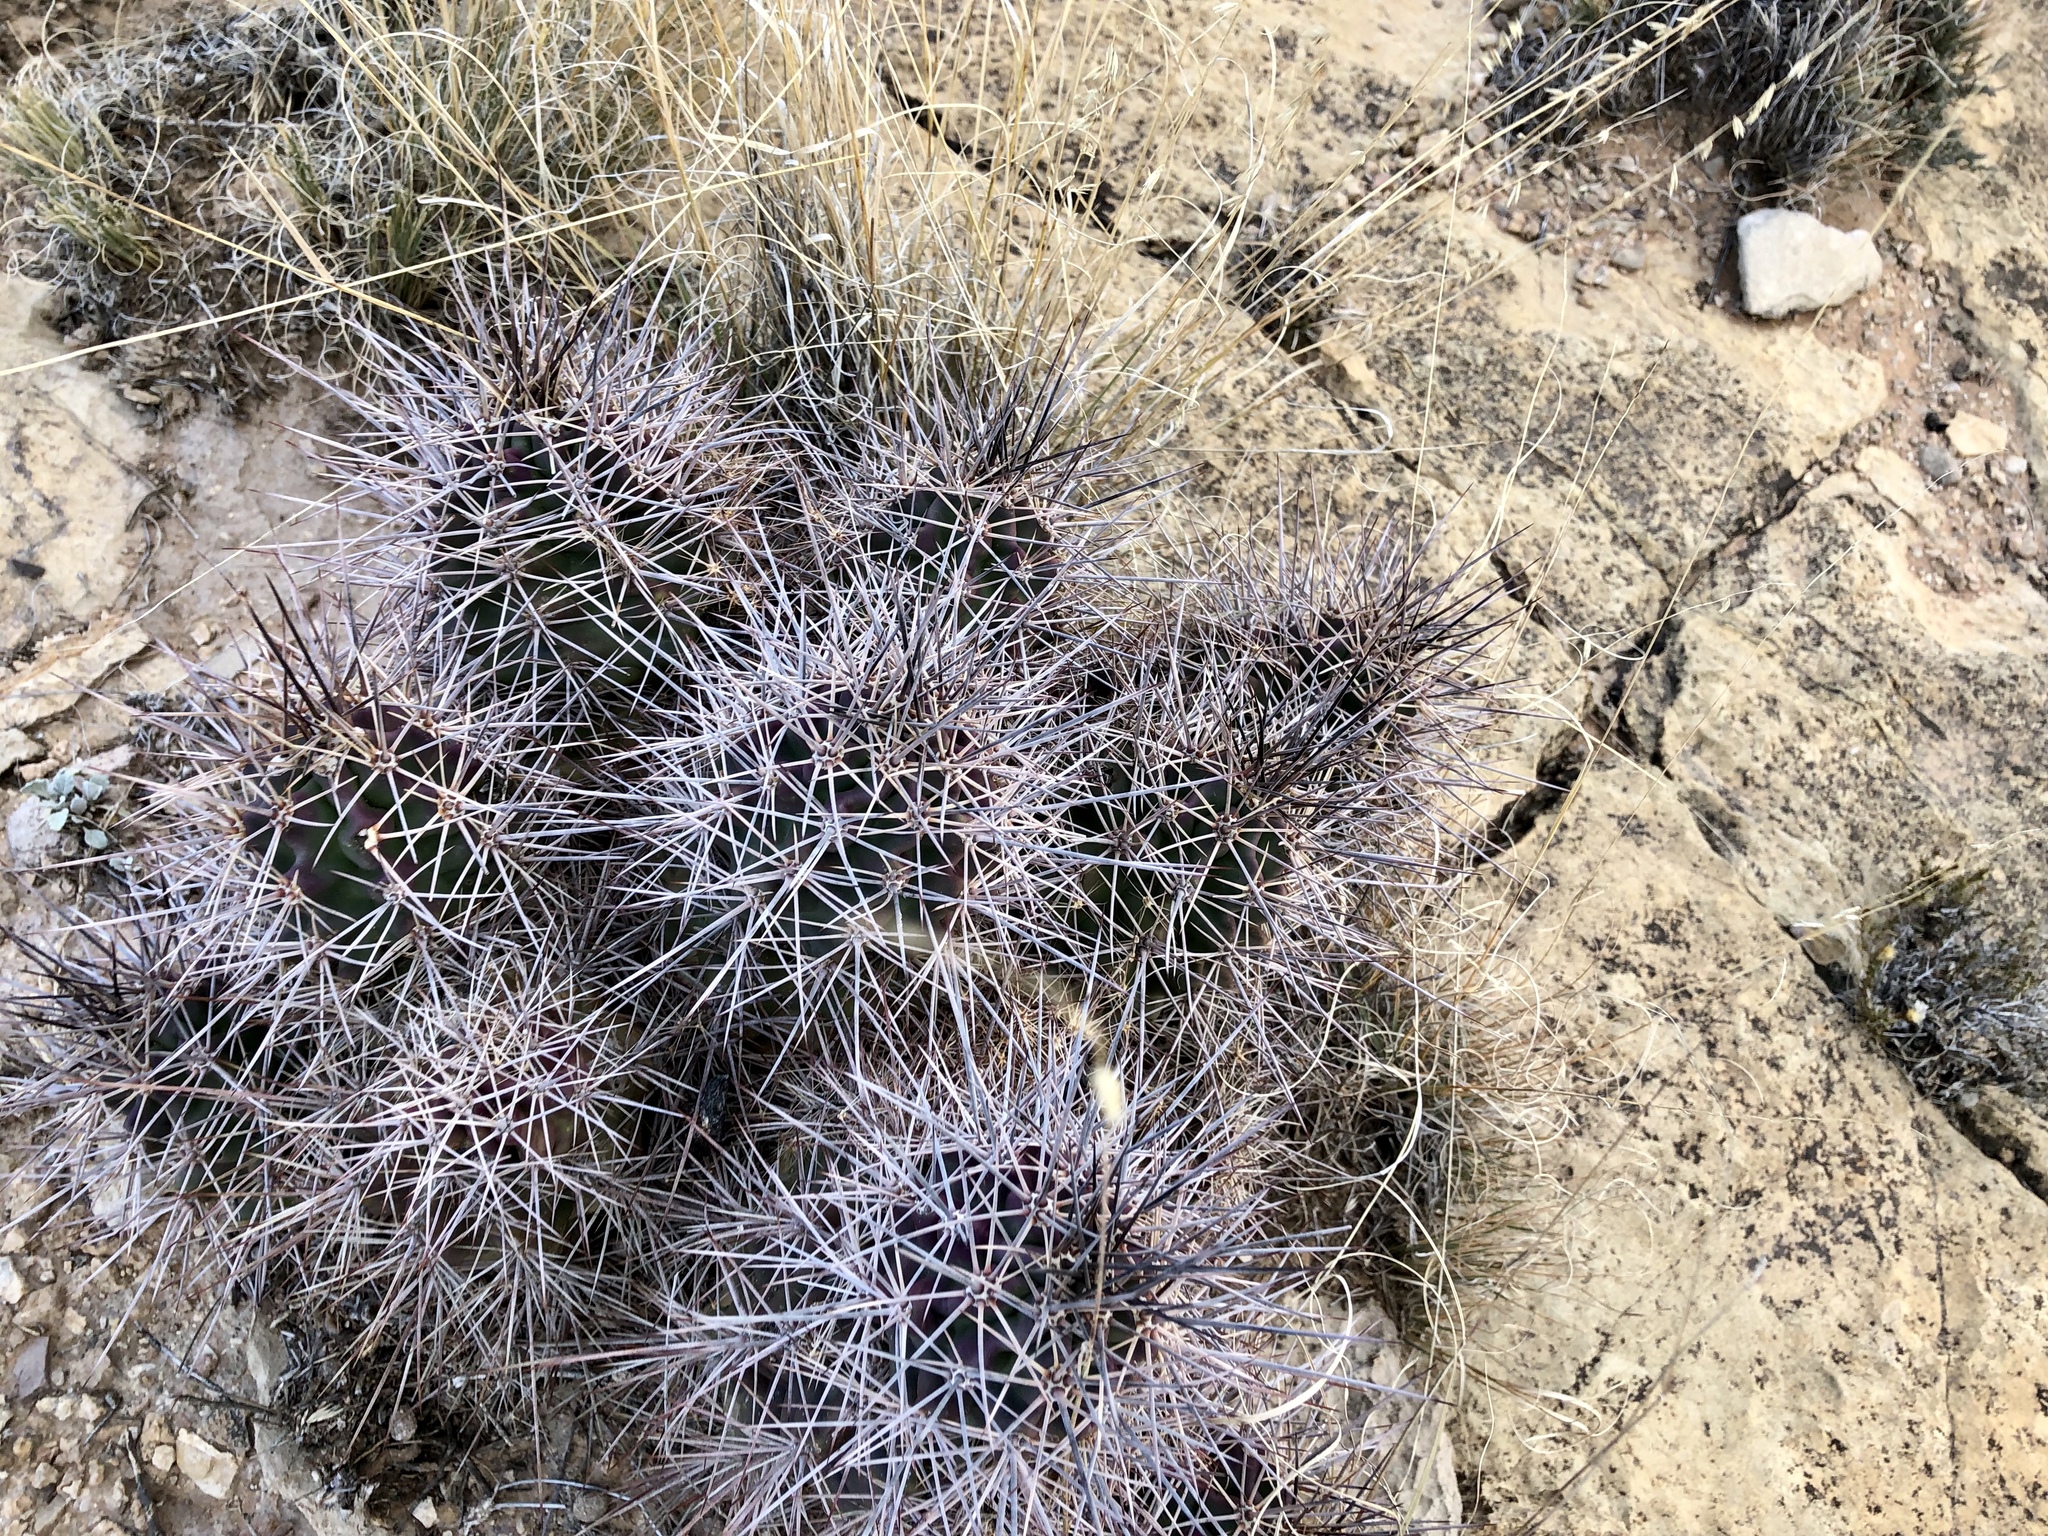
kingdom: Plantae
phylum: Tracheophyta
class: Magnoliopsida
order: Caryophyllales
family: Cactaceae
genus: Echinocereus
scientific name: Echinocereus coccineus
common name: Scarlet hedgehog cactus
